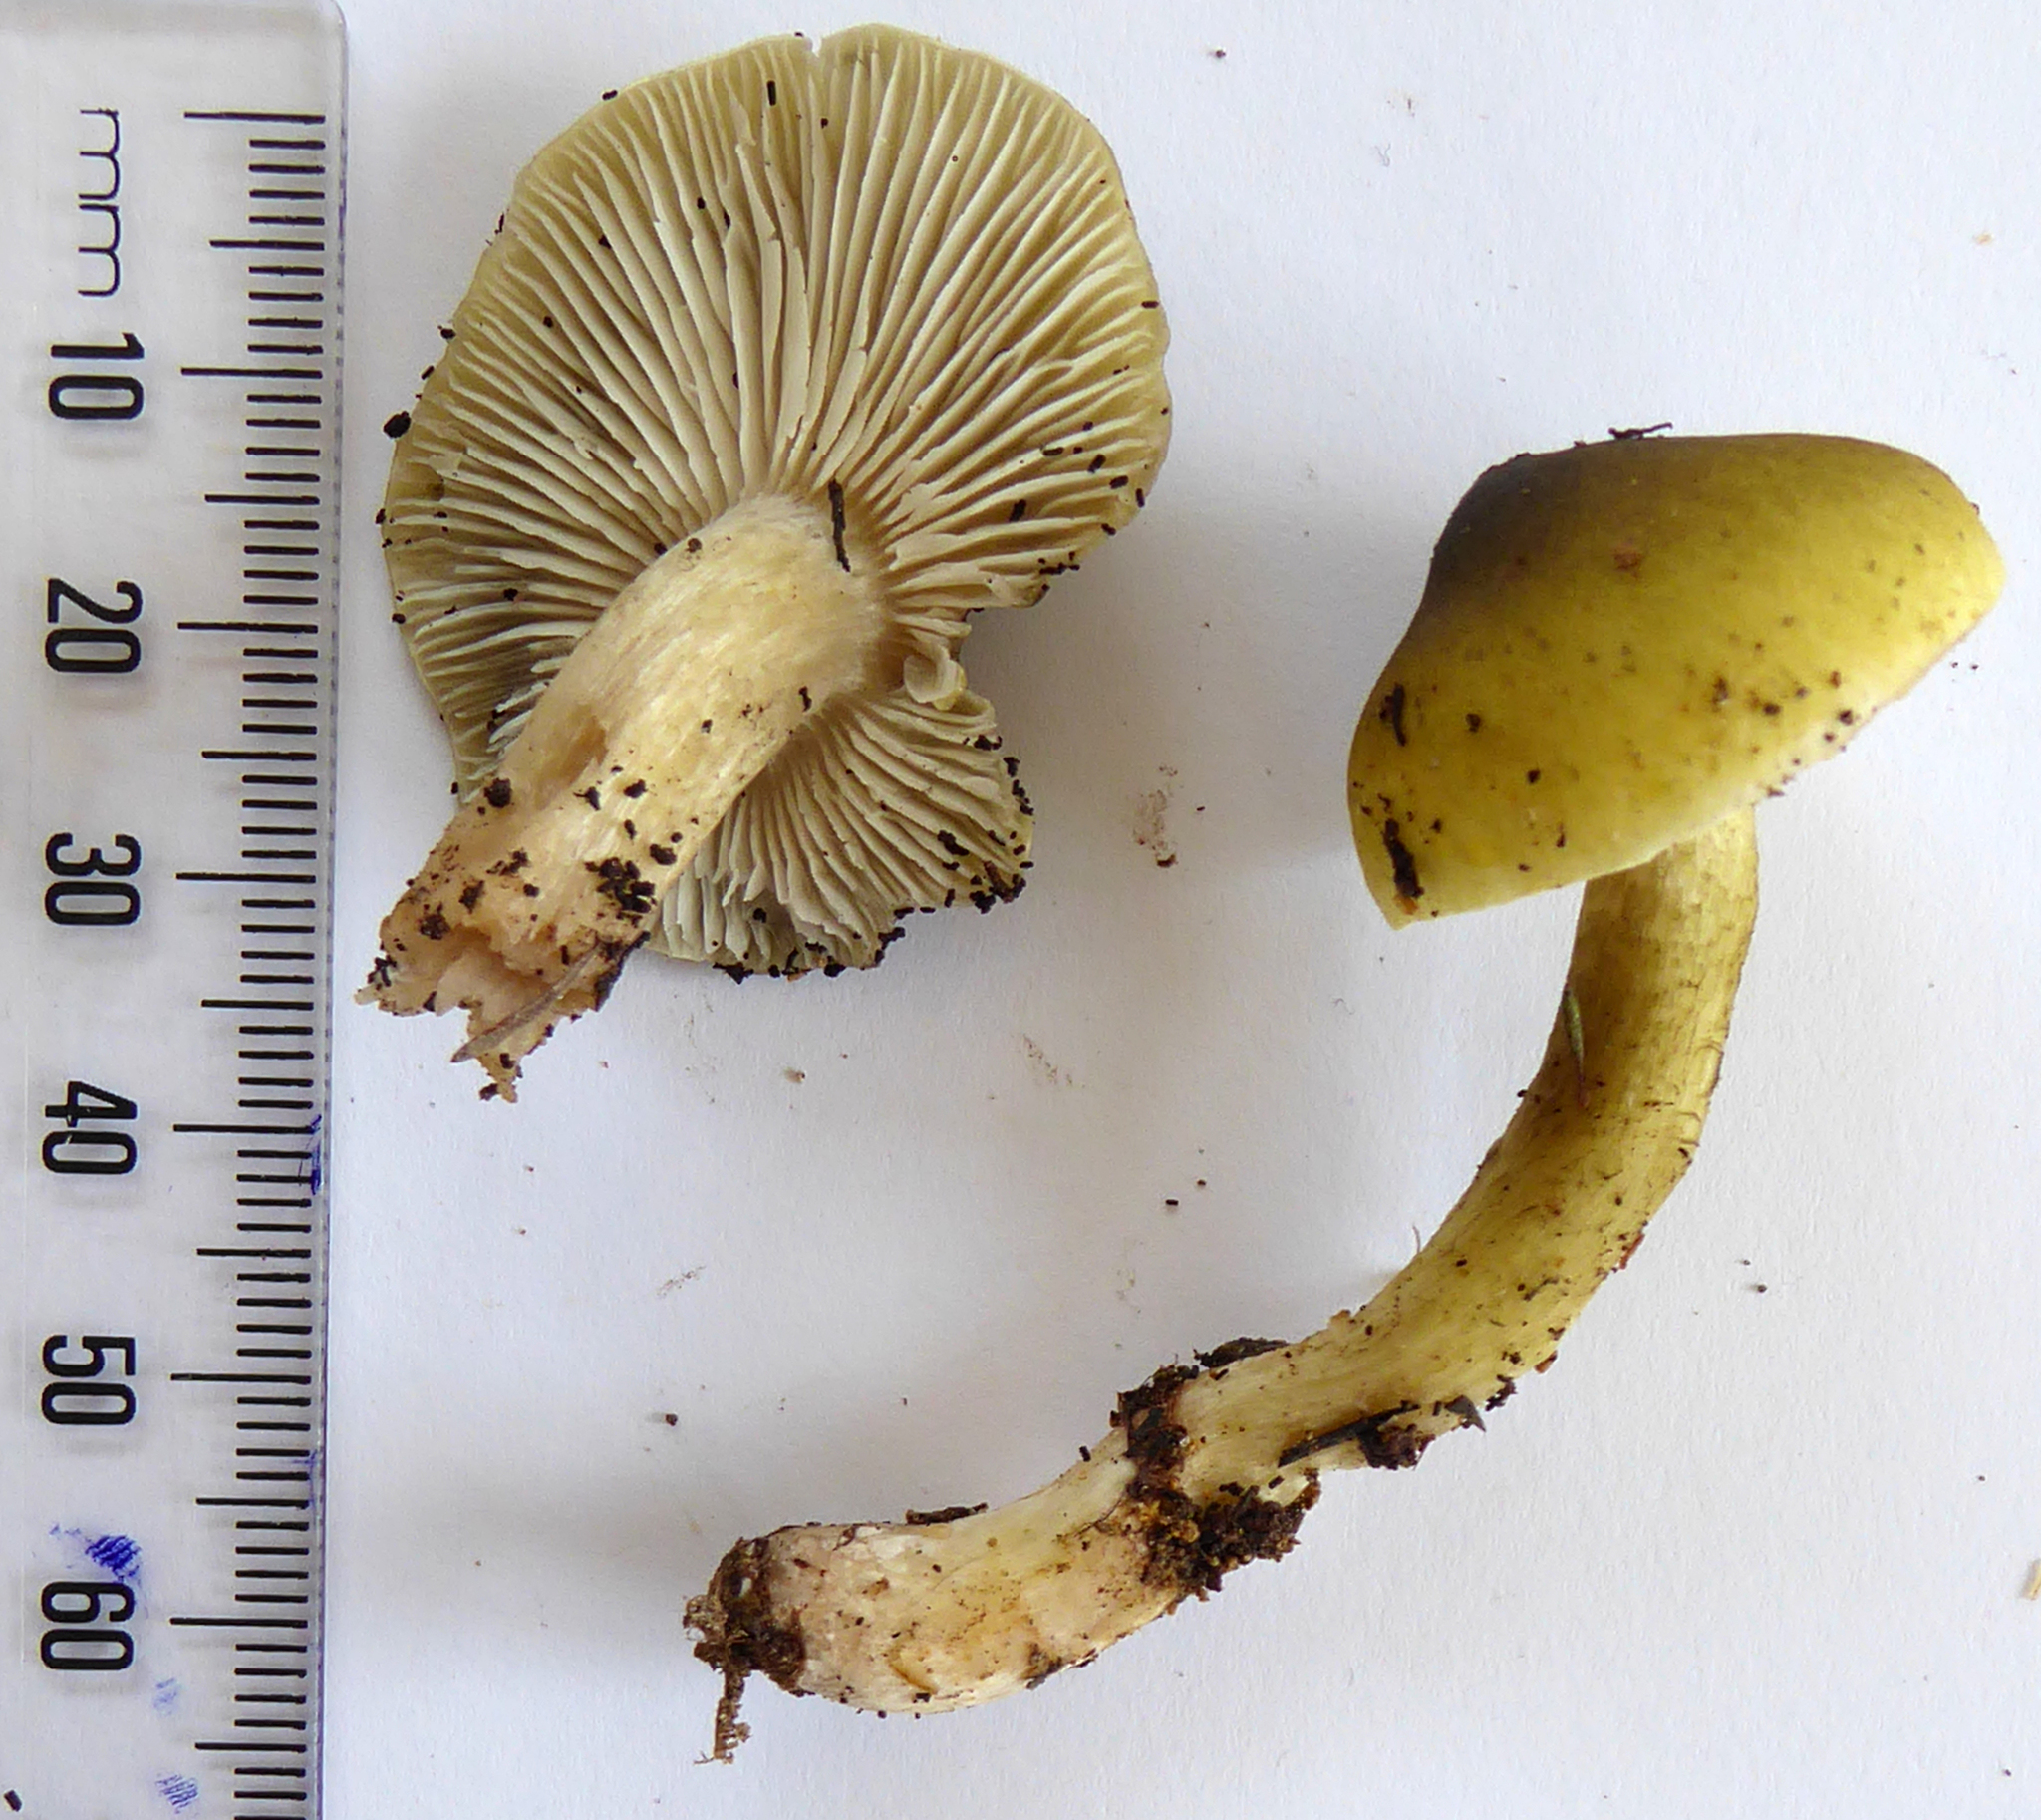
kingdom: Fungi
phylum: Basidiomycota
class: Agaricomycetes
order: Agaricales
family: Tricholomataceae
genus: Tricholoma
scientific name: Tricholoma viridiolivaceum
